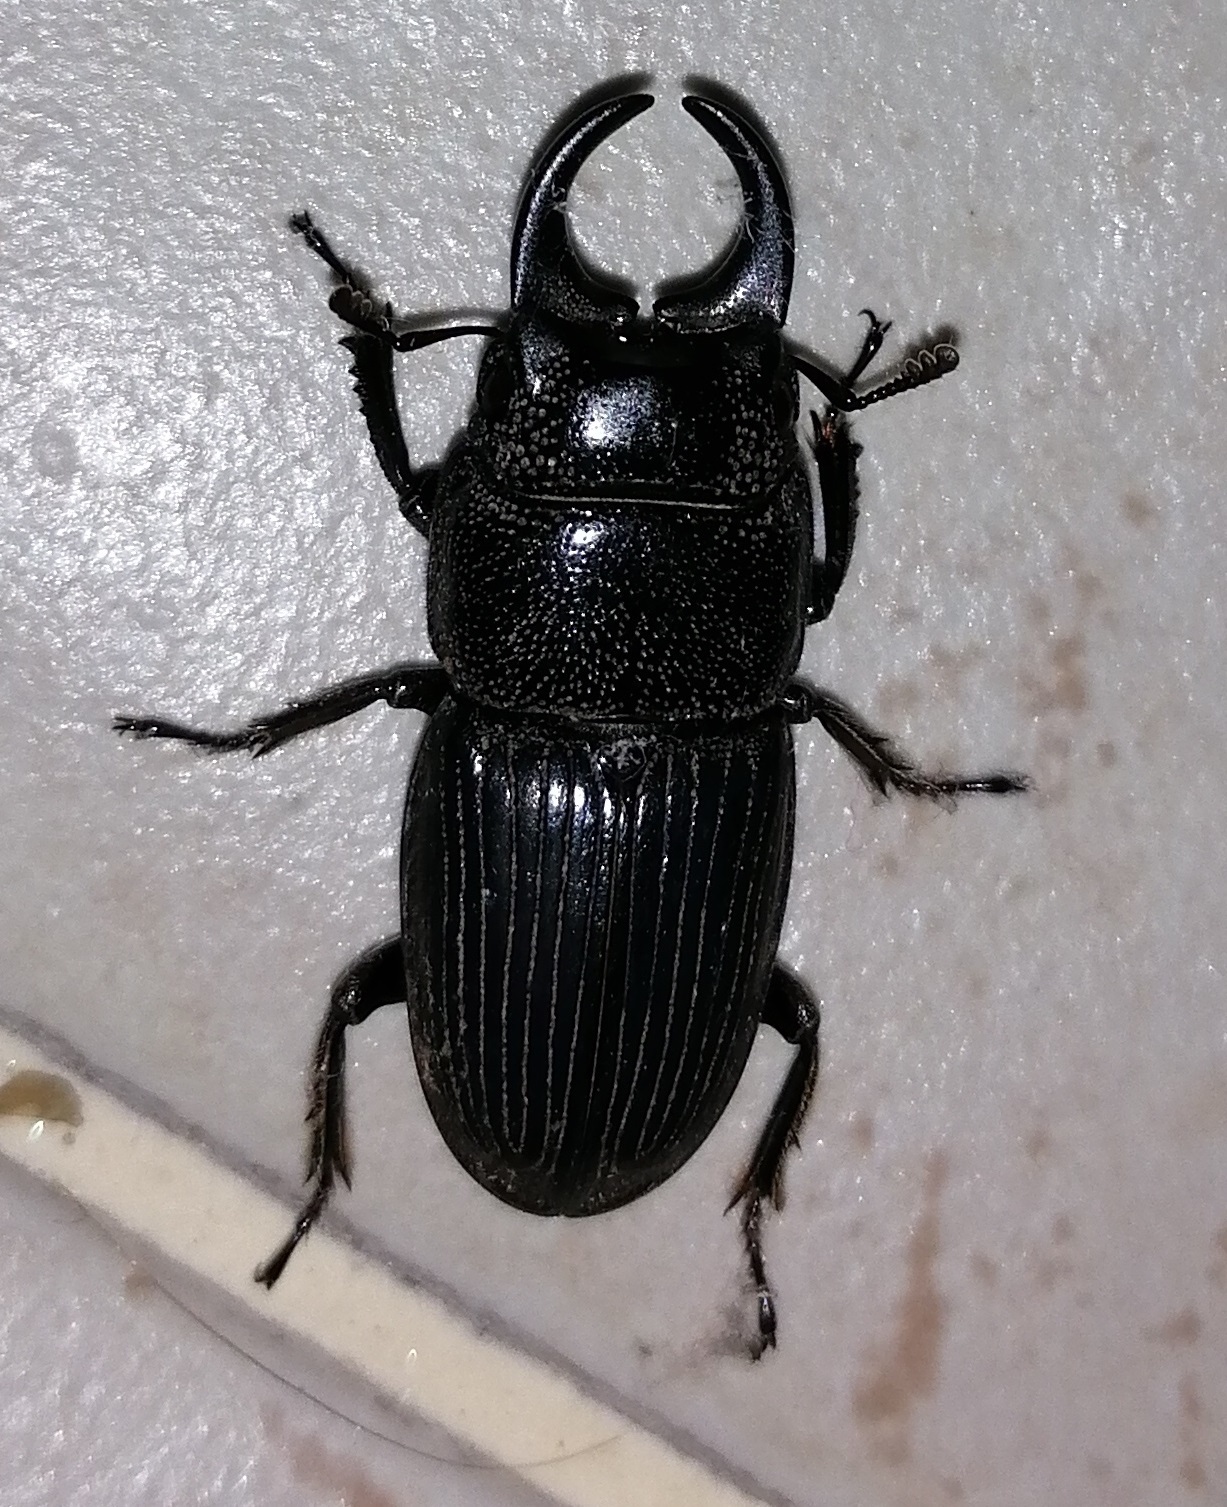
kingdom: Animalia
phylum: Arthropoda
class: Insecta
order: Coleoptera
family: Lucanidae
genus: Aegus
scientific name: Aegus chelifer
